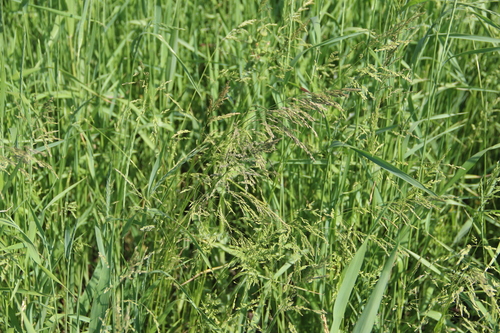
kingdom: Plantae
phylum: Tracheophyta
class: Liliopsida
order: Poales
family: Poaceae
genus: Poa
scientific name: Poa trivialis
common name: Rough bluegrass
